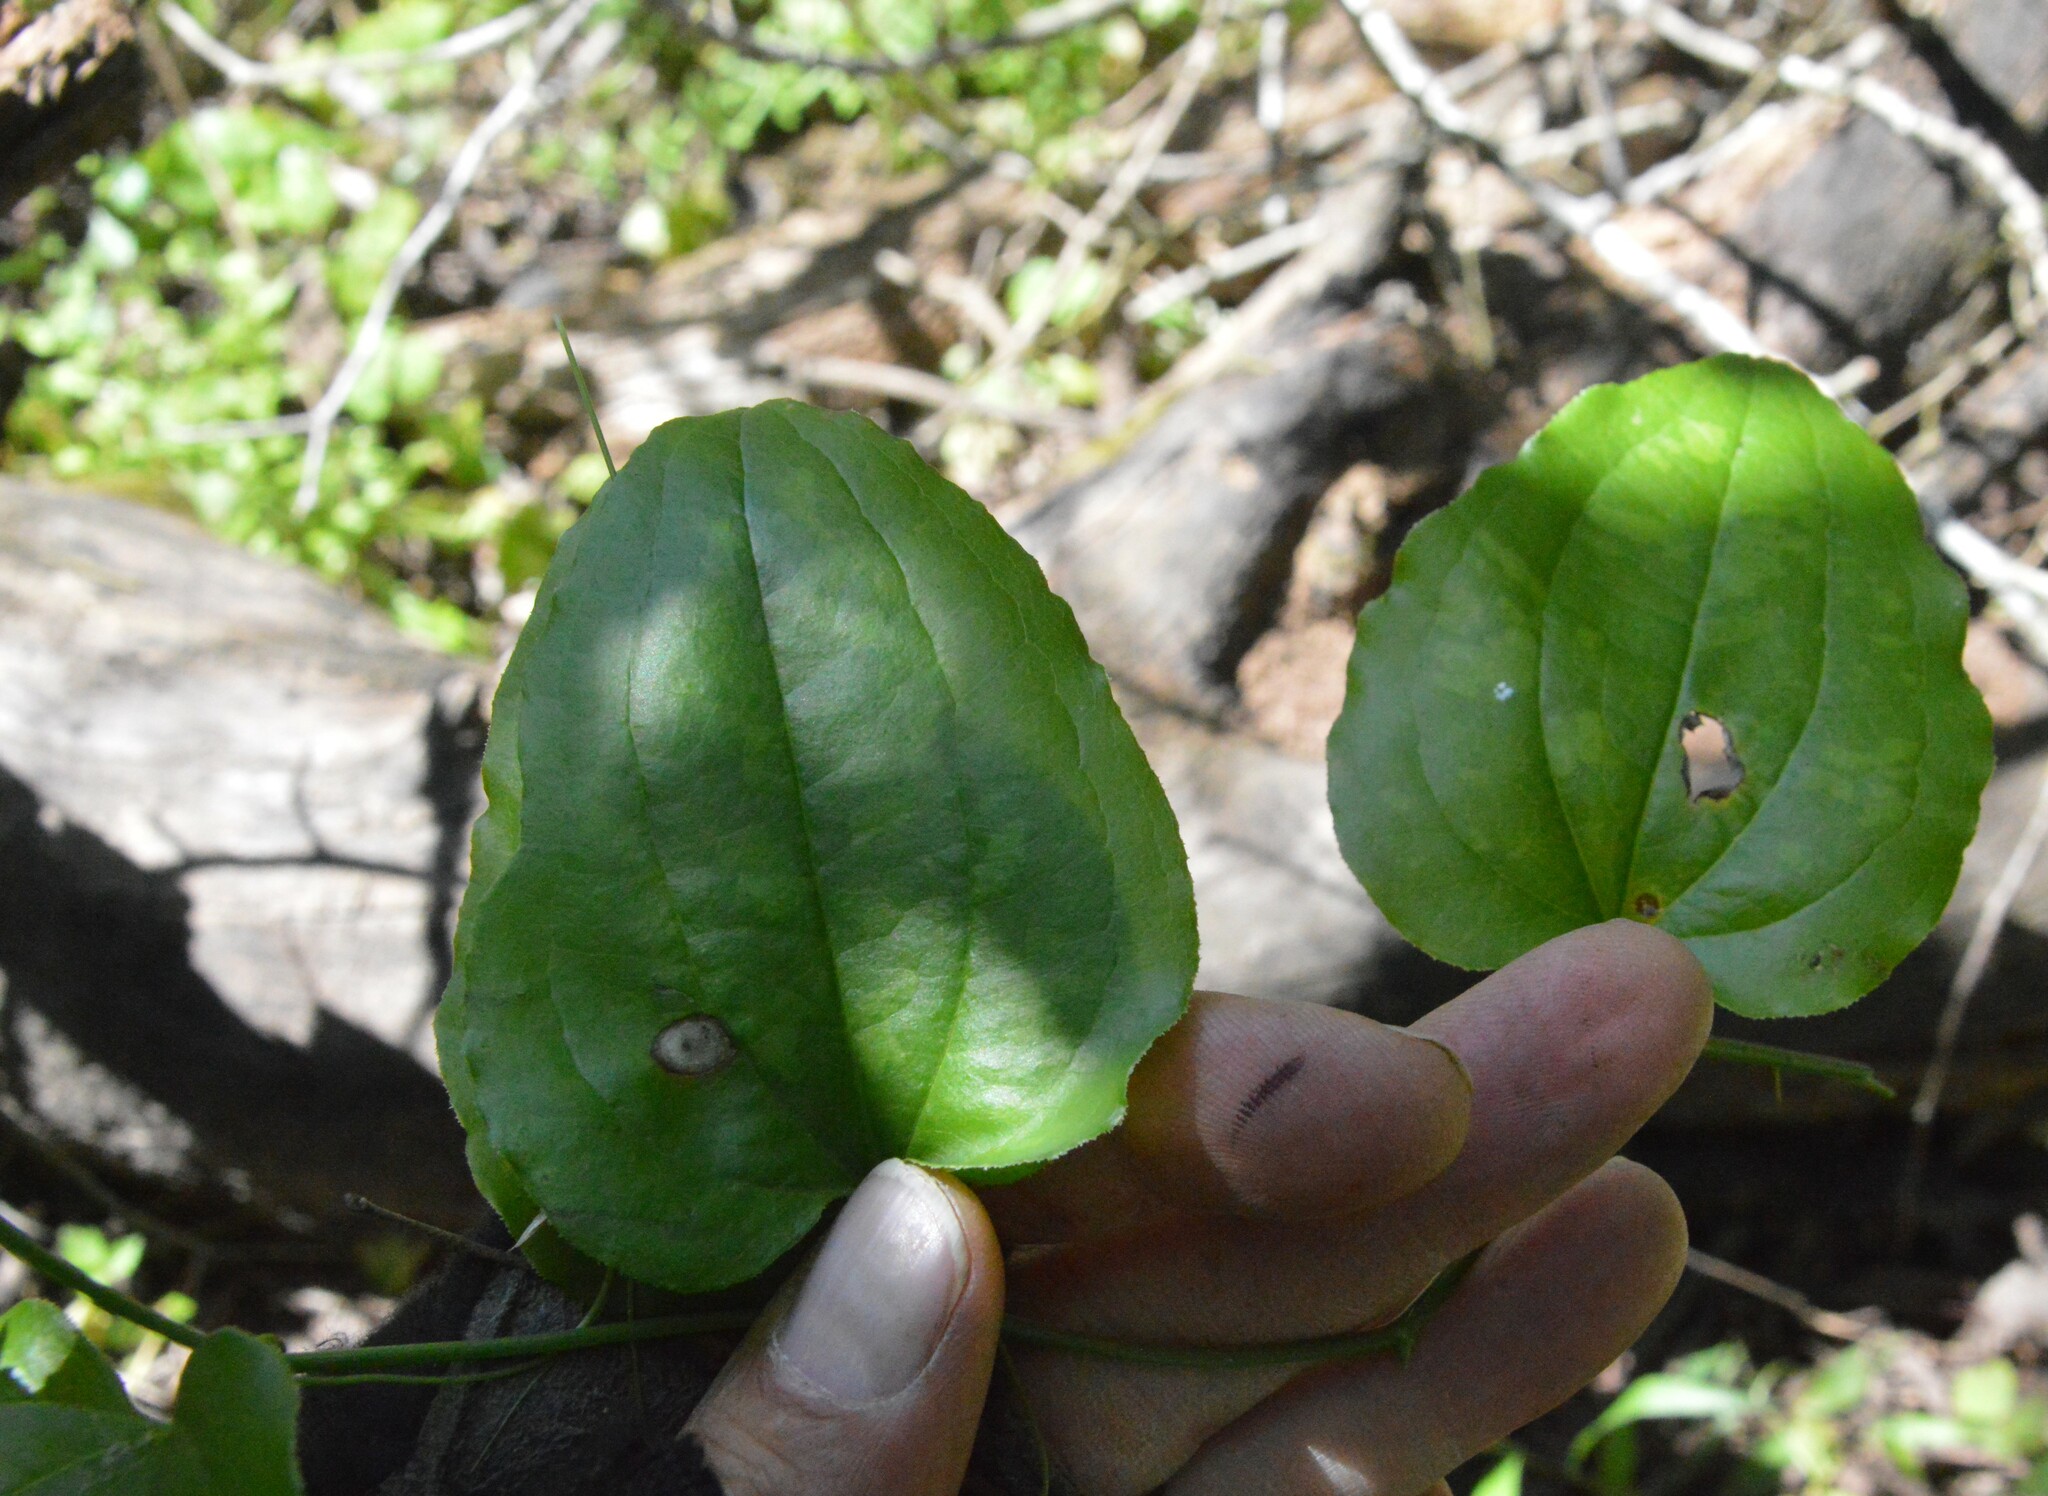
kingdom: Plantae
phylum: Tracheophyta
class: Liliopsida
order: Liliales
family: Smilacaceae
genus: Smilax
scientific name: Smilax tamnoides
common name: Hellfetter
